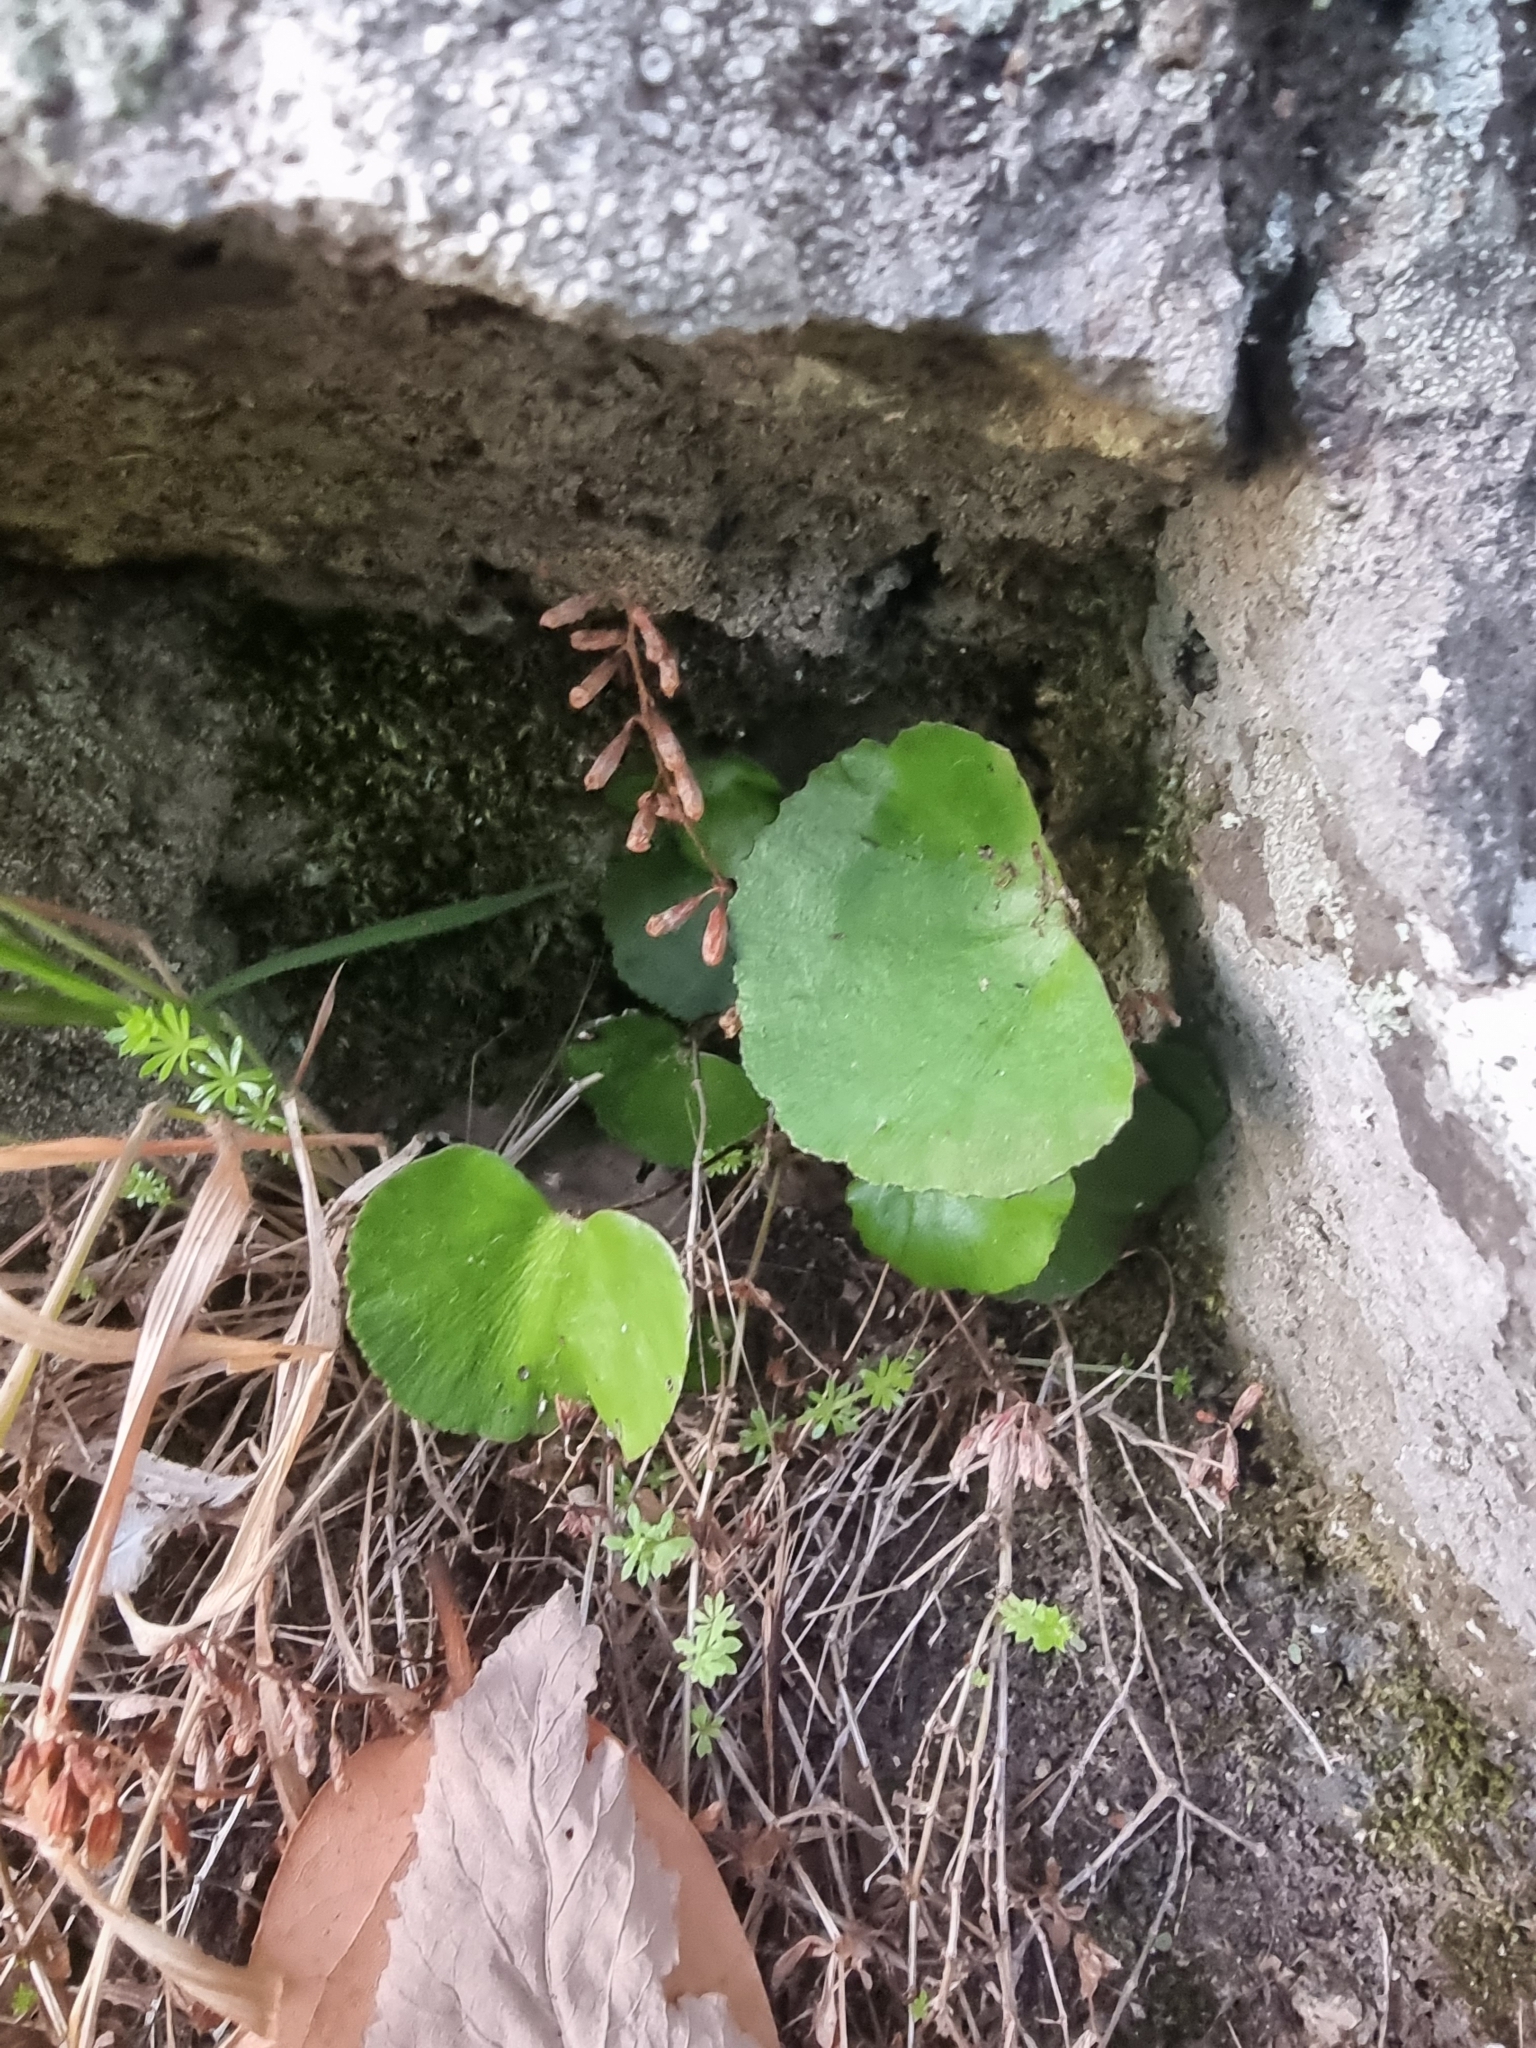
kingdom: Plantae
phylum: Tracheophyta
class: Polypodiopsida
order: Polypodiales
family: Pteridaceae
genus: Adiantum
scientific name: Adiantum reniforme
